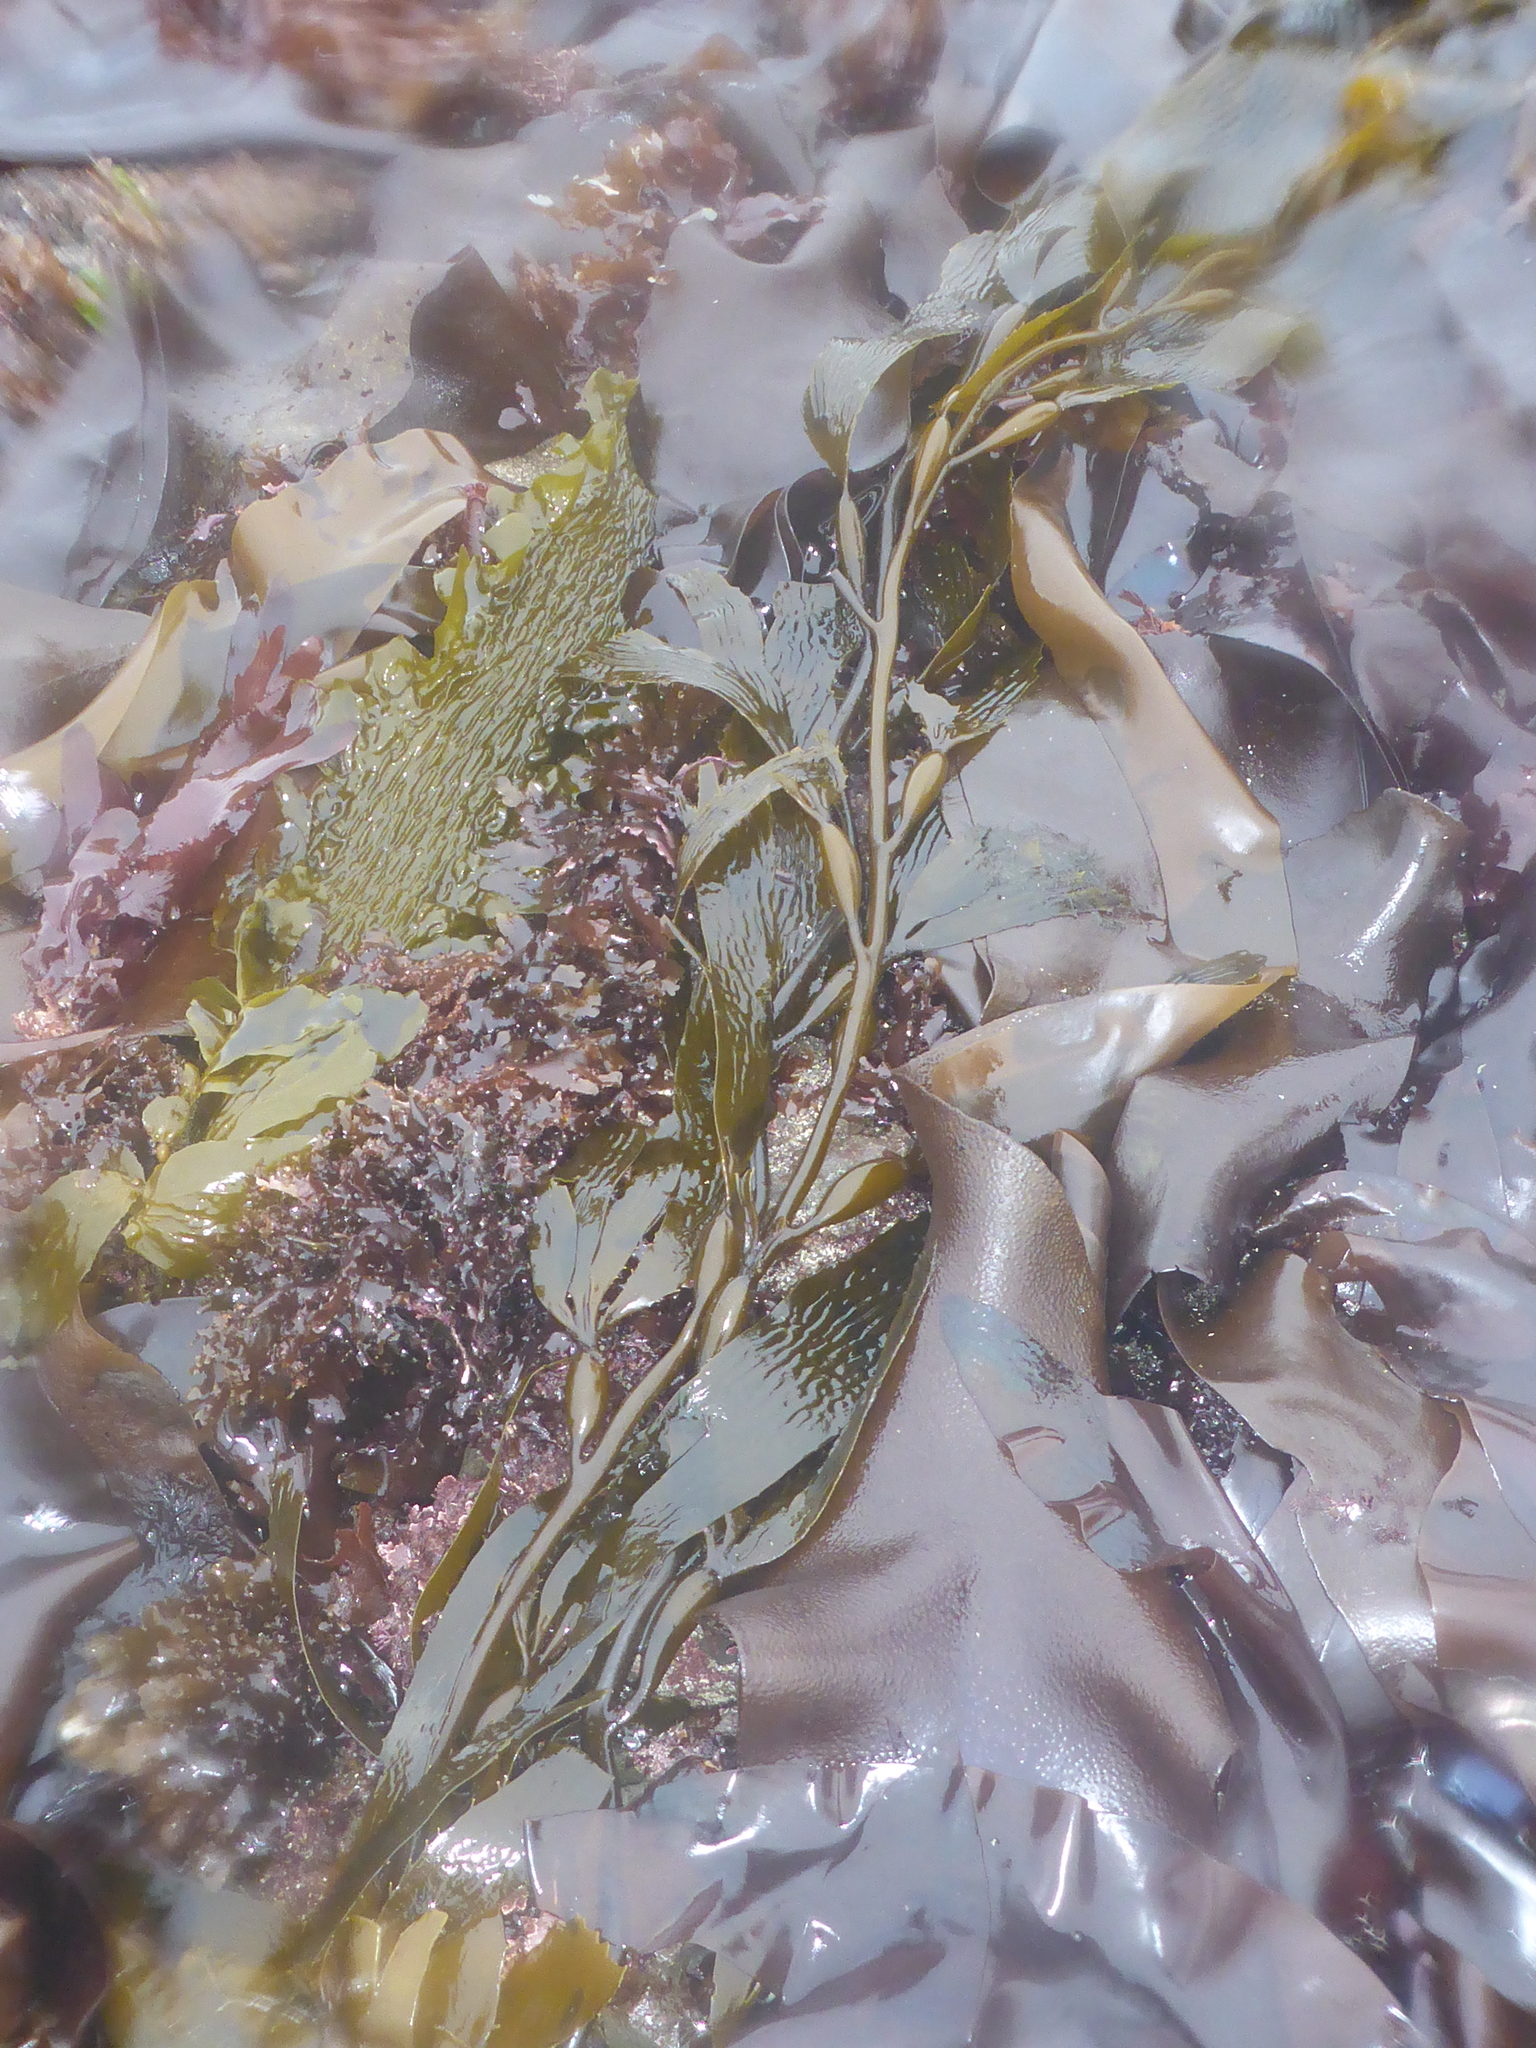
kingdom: Chromista
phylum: Ochrophyta
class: Phaeophyceae
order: Laminariales
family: Laminariaceae
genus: Macrocystis
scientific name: Macrocystis pyrifera
